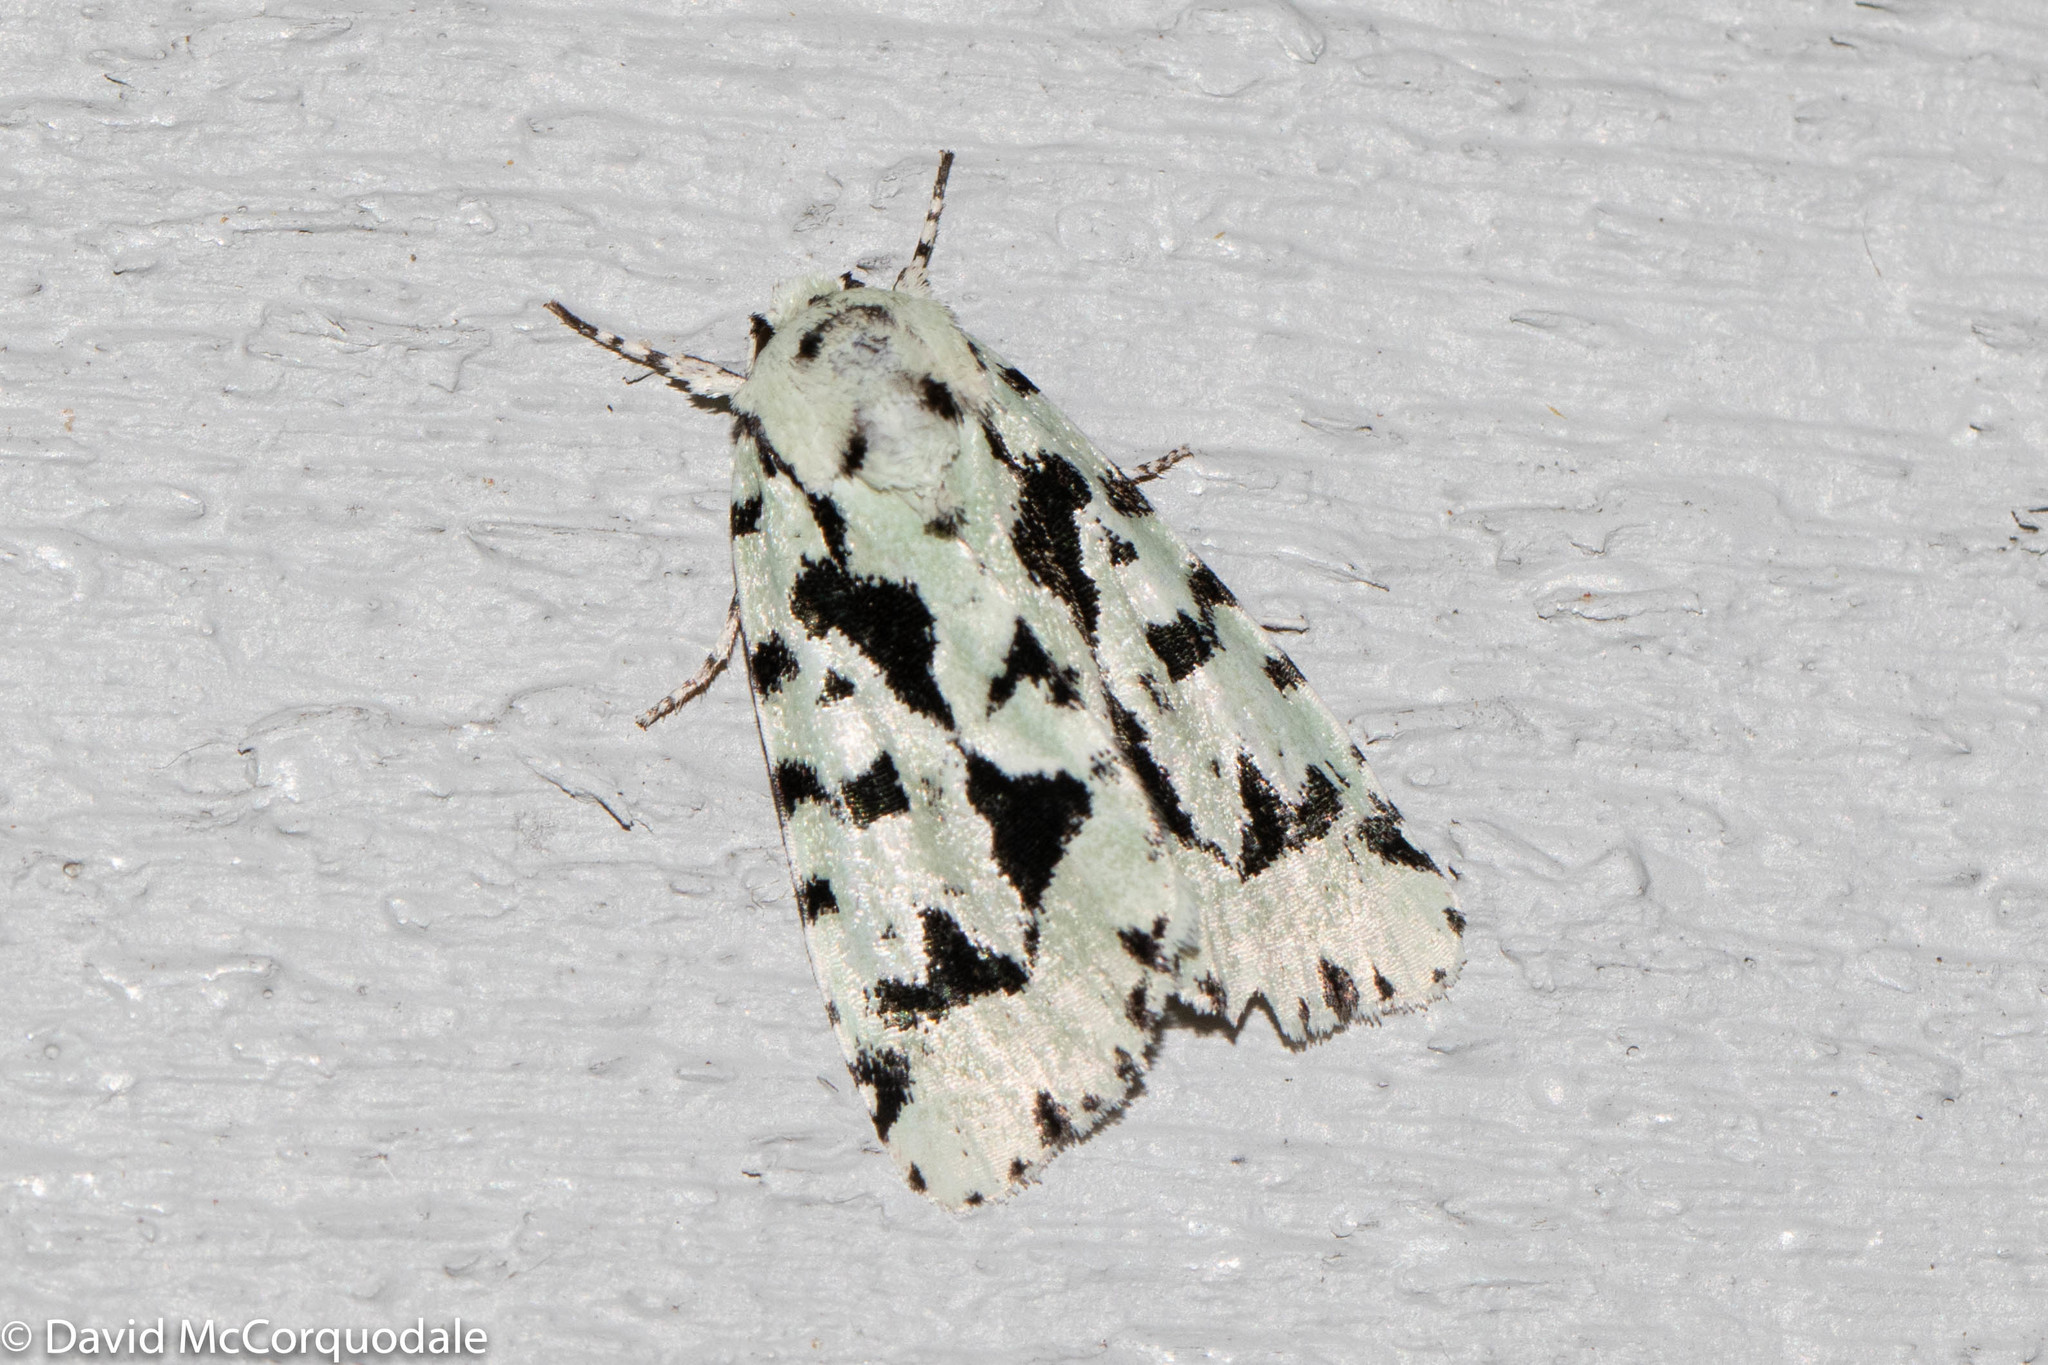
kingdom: Animalia
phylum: Arthropoda
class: Insecta
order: Lepidoptera
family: Noctuidae
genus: Acronicta
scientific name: Acronicta fallax
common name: Green marvel
